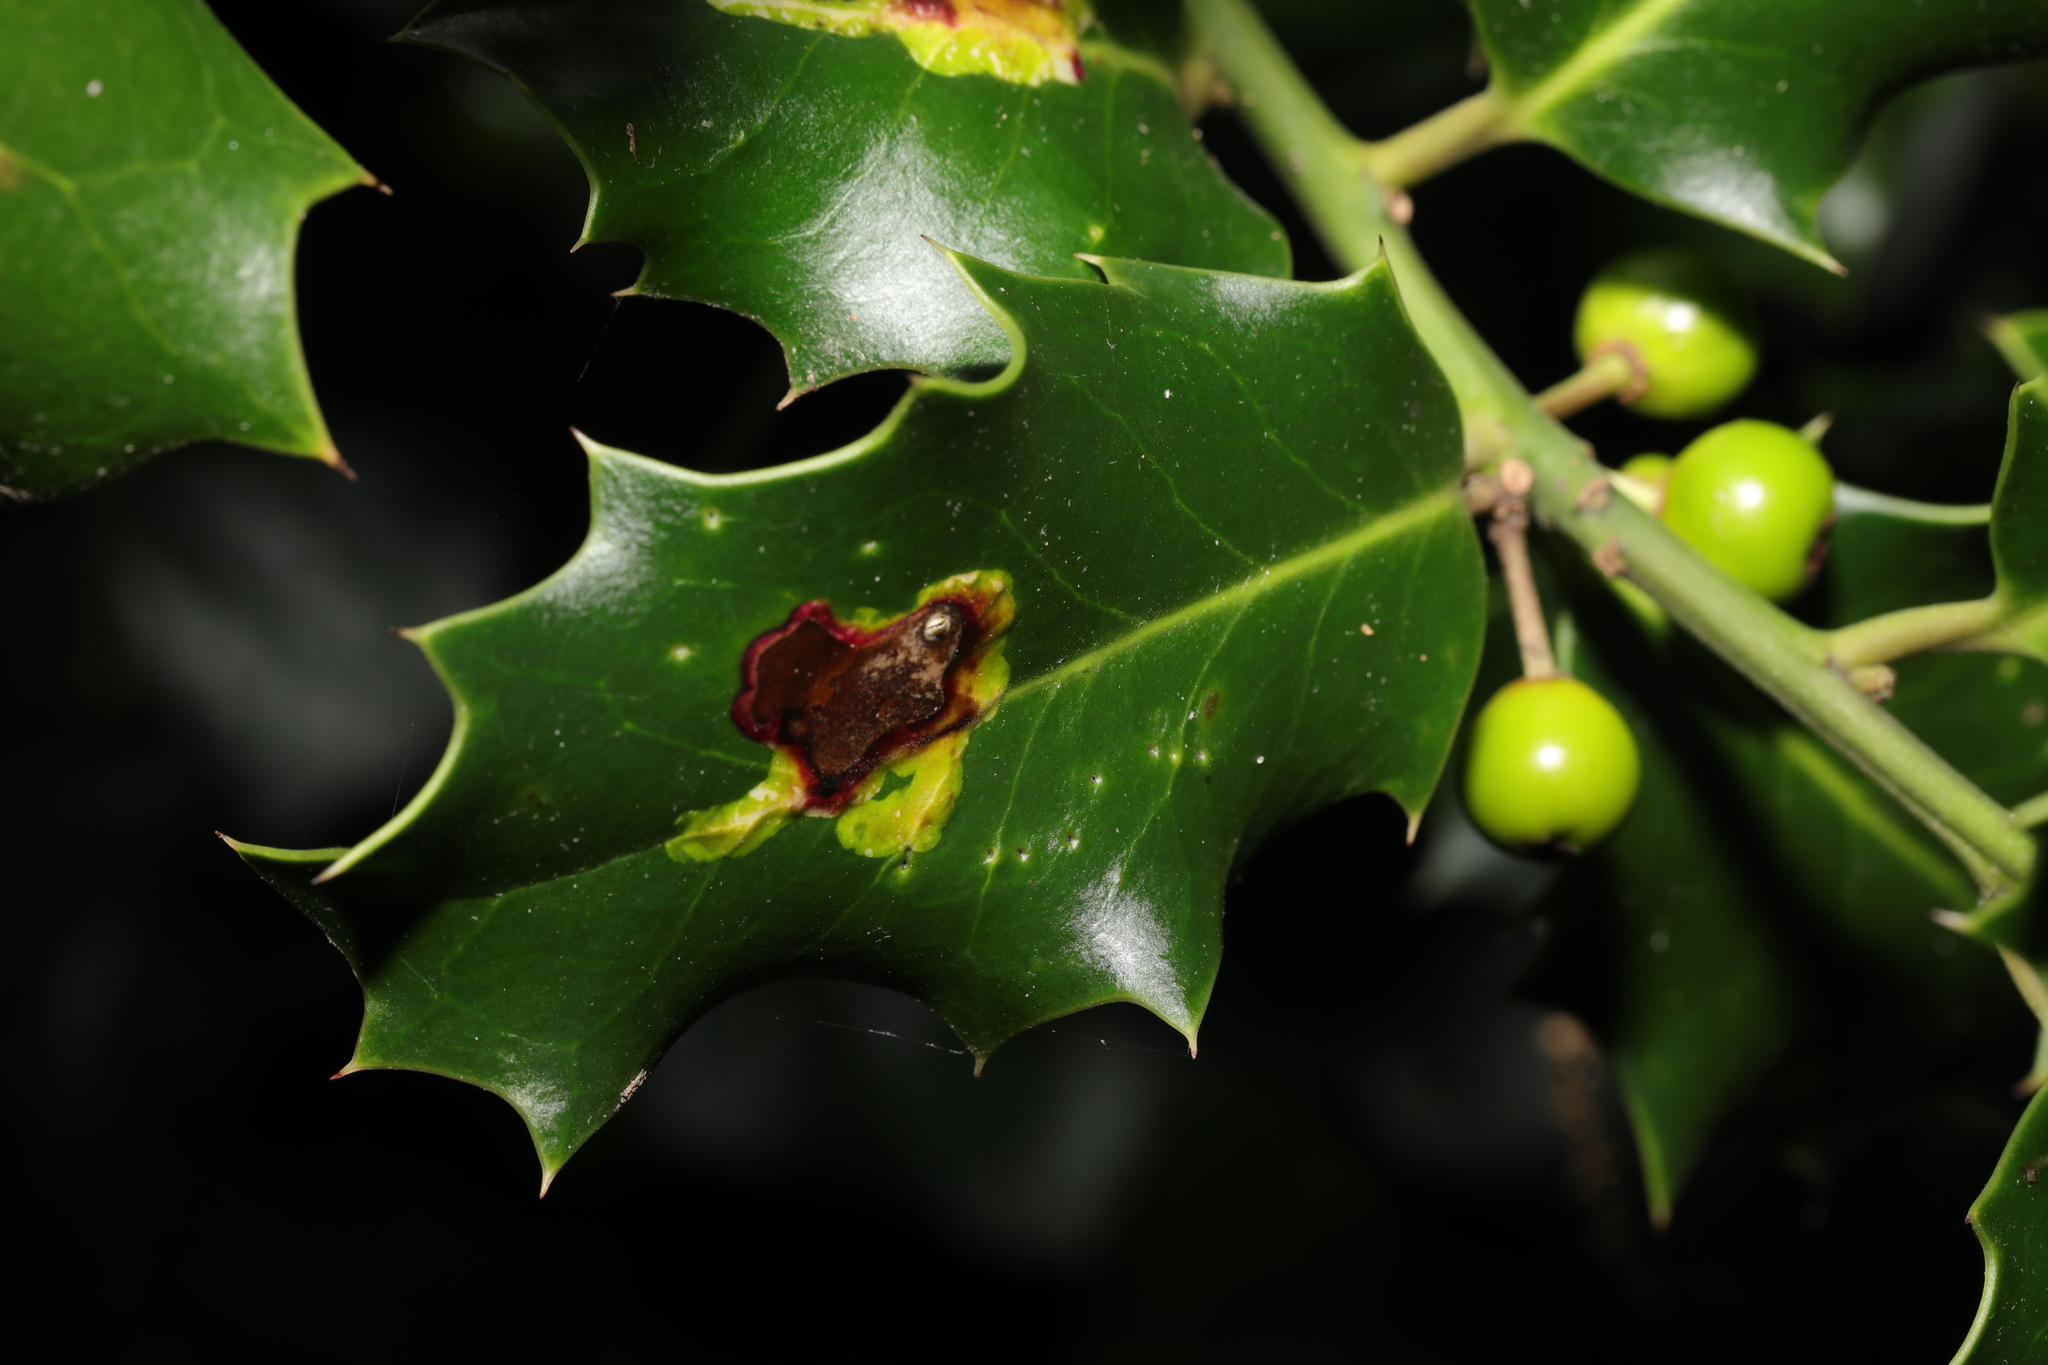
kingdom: Animalia
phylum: Arthropoda
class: Insecta
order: Diptera
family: Agromyzidae
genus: Phytomyza
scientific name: Phytomyza ilicis
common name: Holly leafminer
